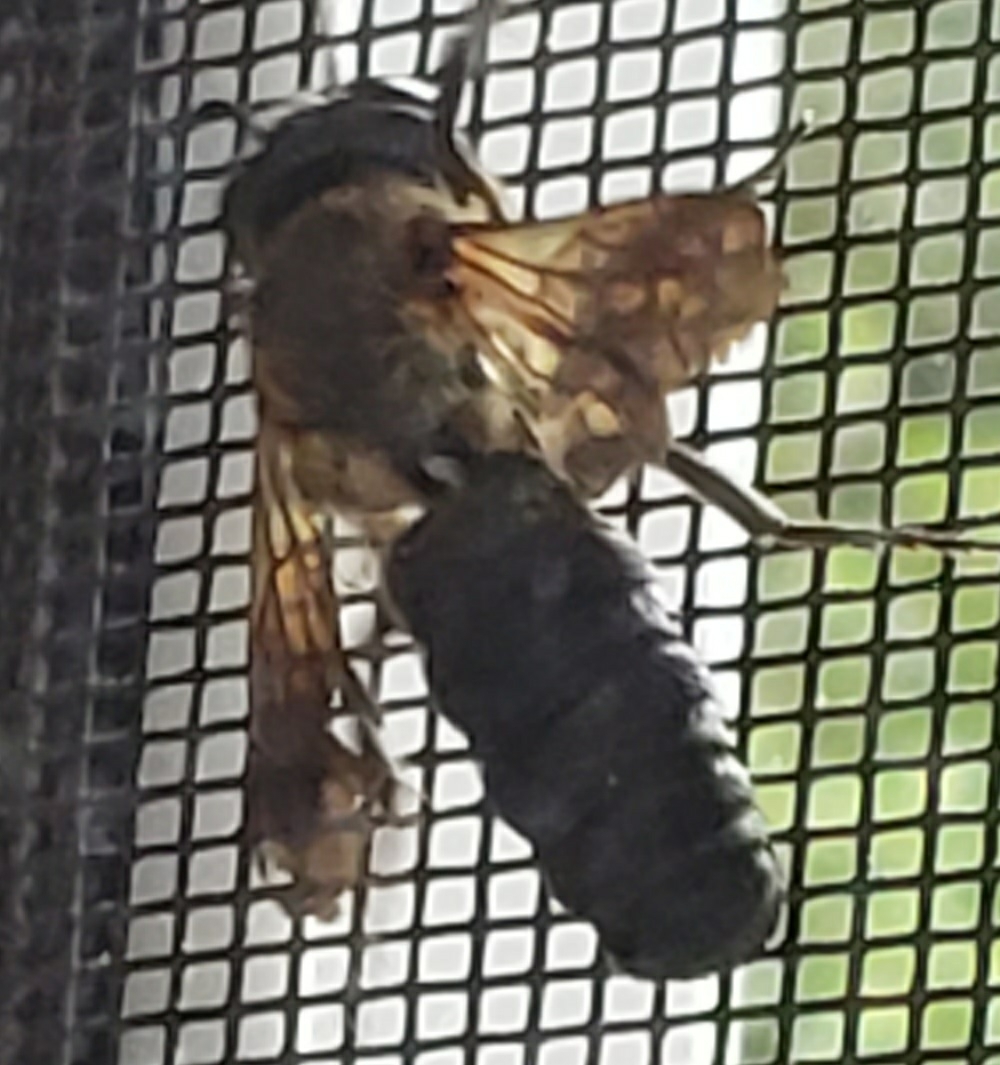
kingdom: Animalia
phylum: Arthropoda
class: Insecta
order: Hymenoptera
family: Megachilidae
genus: Megachile
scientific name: Megachile sculpturalis
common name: Sculptured resin bee
